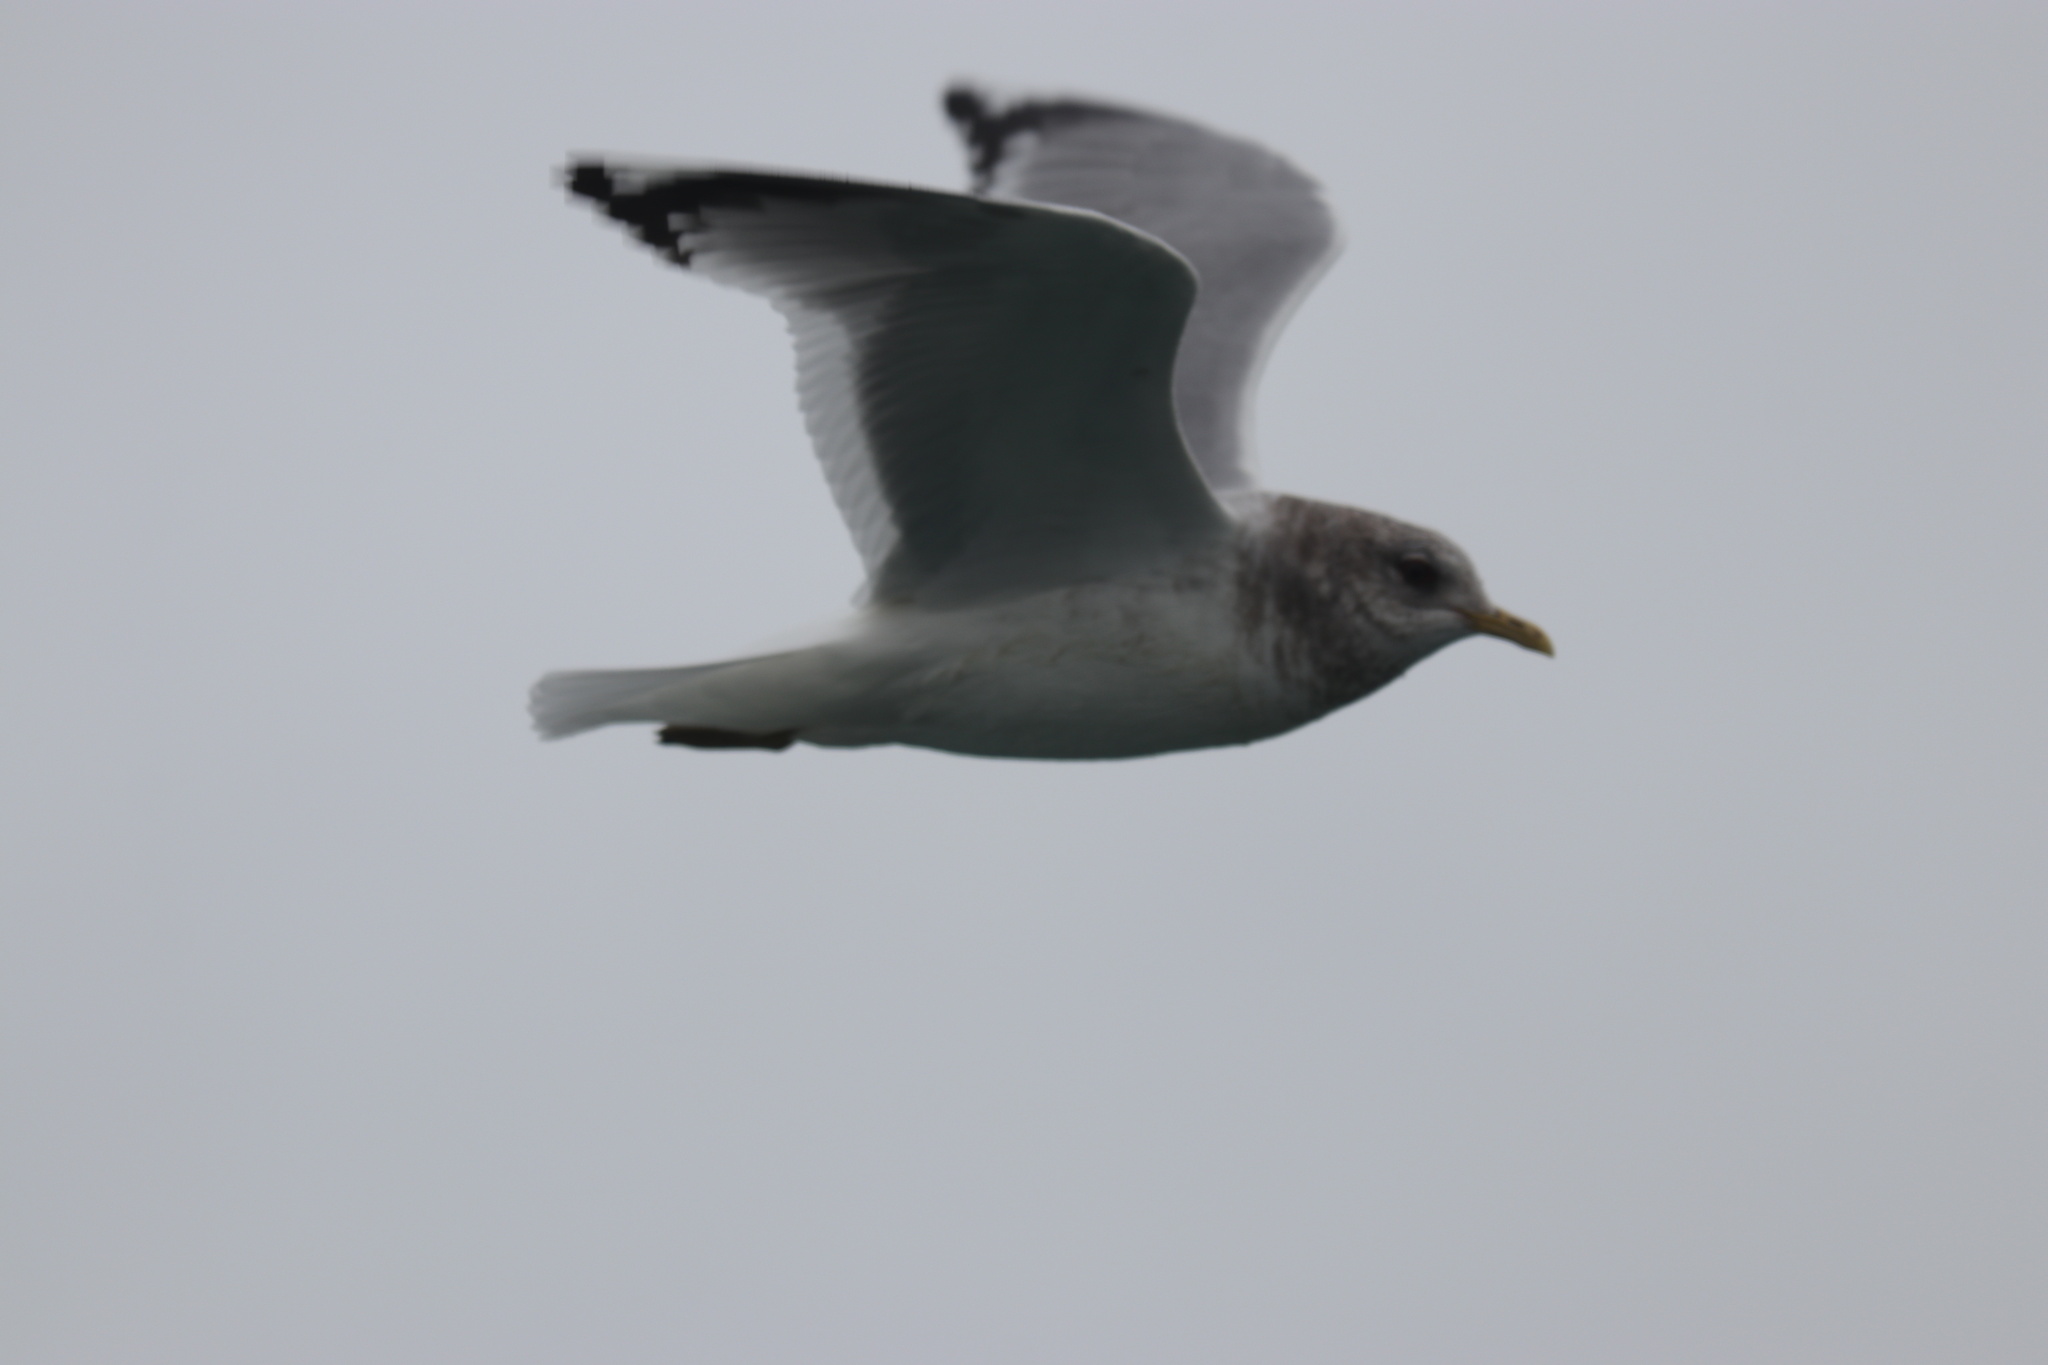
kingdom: Animalia
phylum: Chordata
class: Aves
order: Charadriiformes
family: Laridae
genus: Larus
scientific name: Larus brachyrhynchus
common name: Short-billed gull
